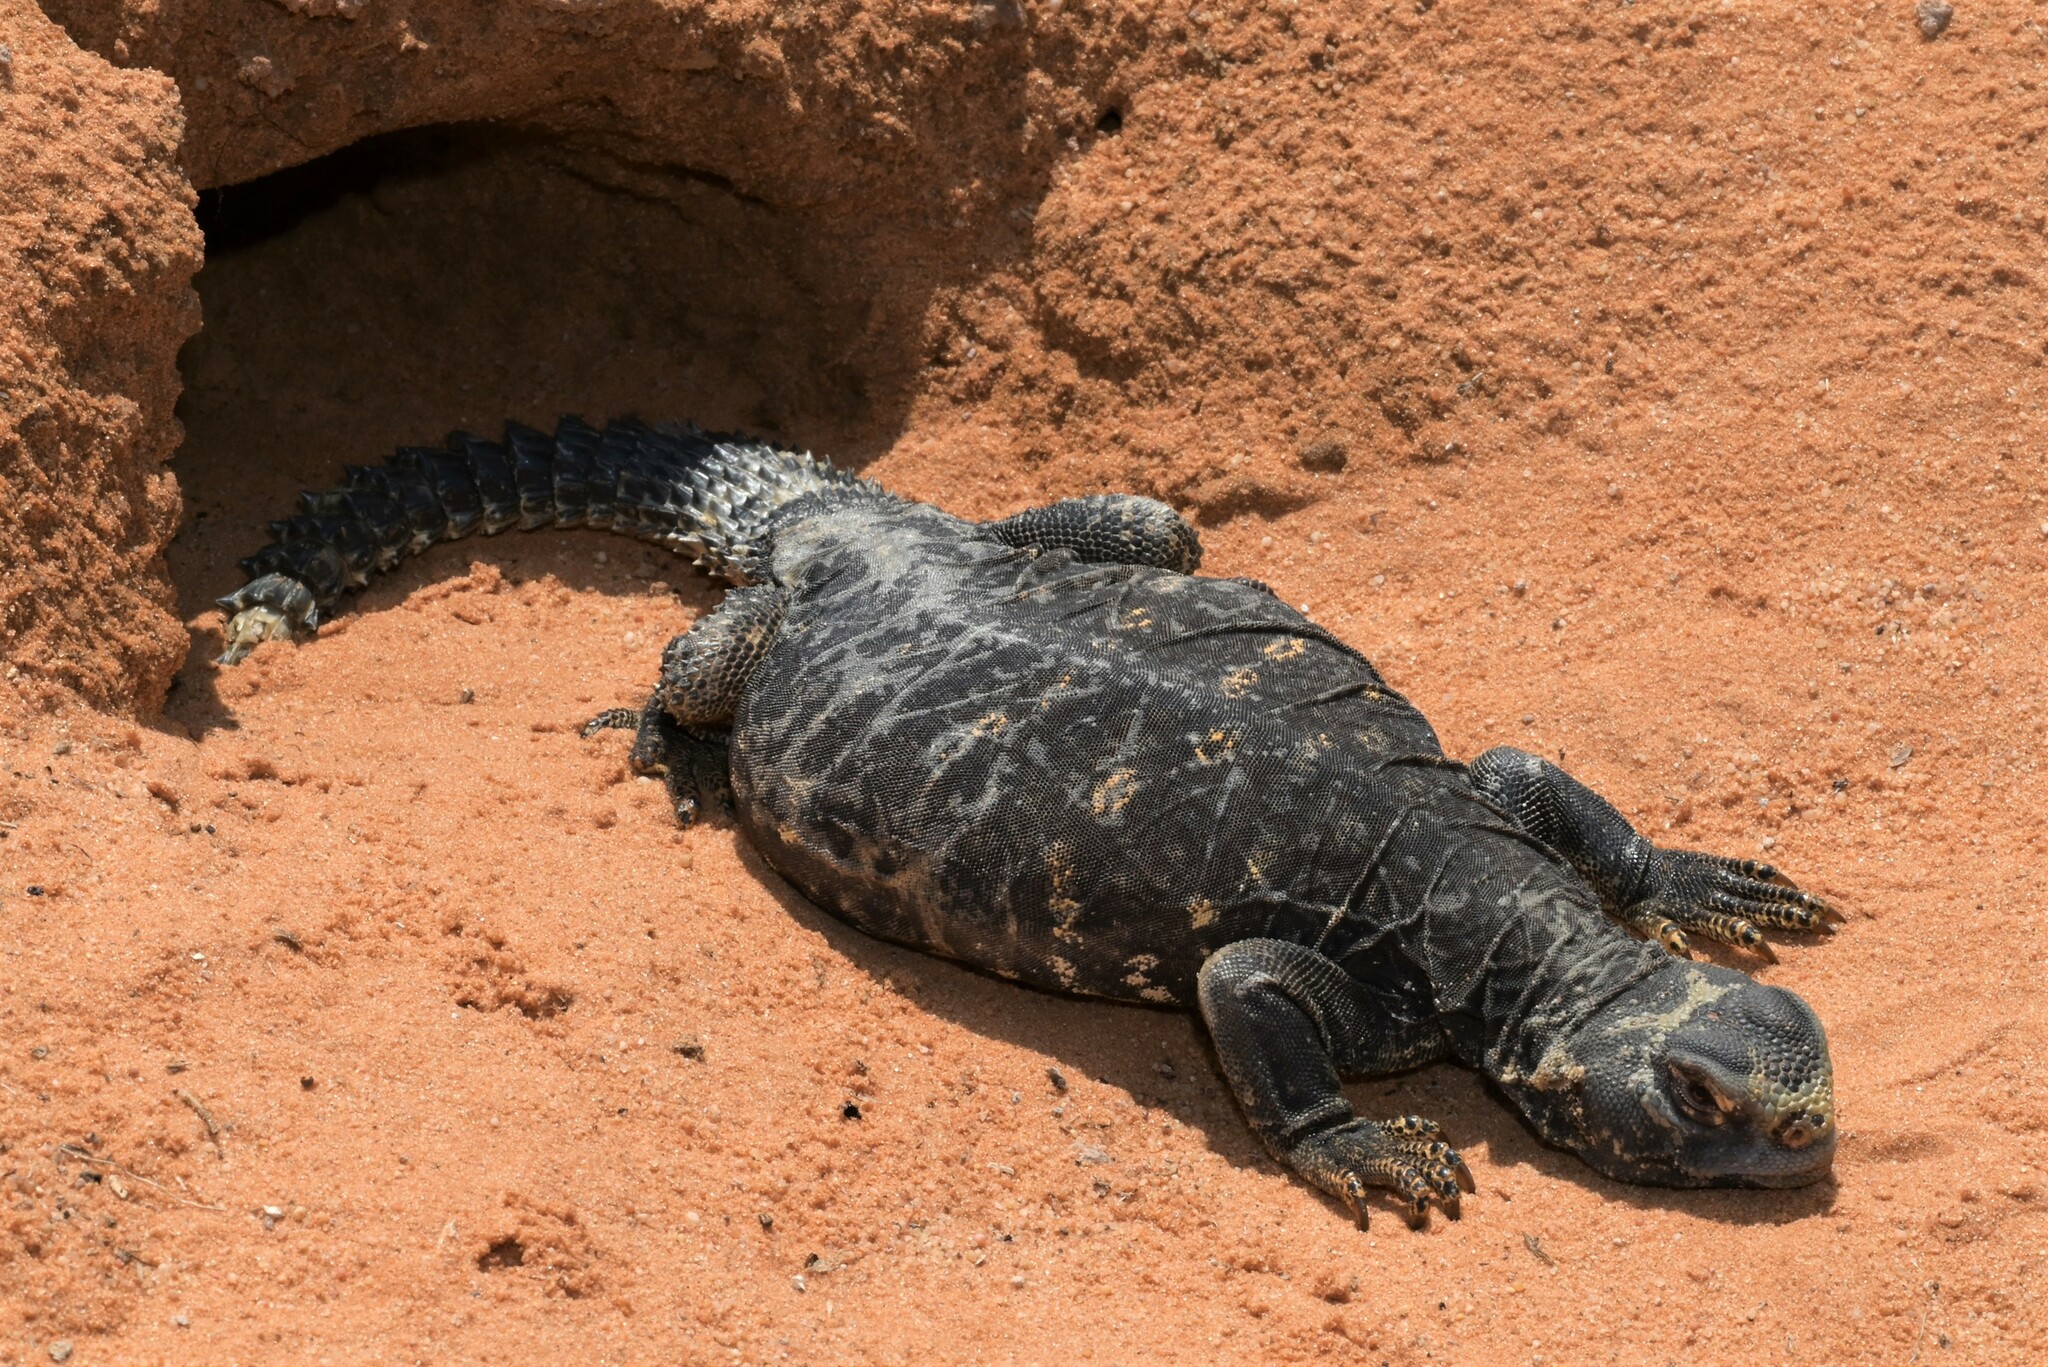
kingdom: Animalia
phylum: Chordata
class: Squamata
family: Agamidae
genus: Uromastyx
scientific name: Uromastyx aegyptia
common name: Egyptian mastigure
